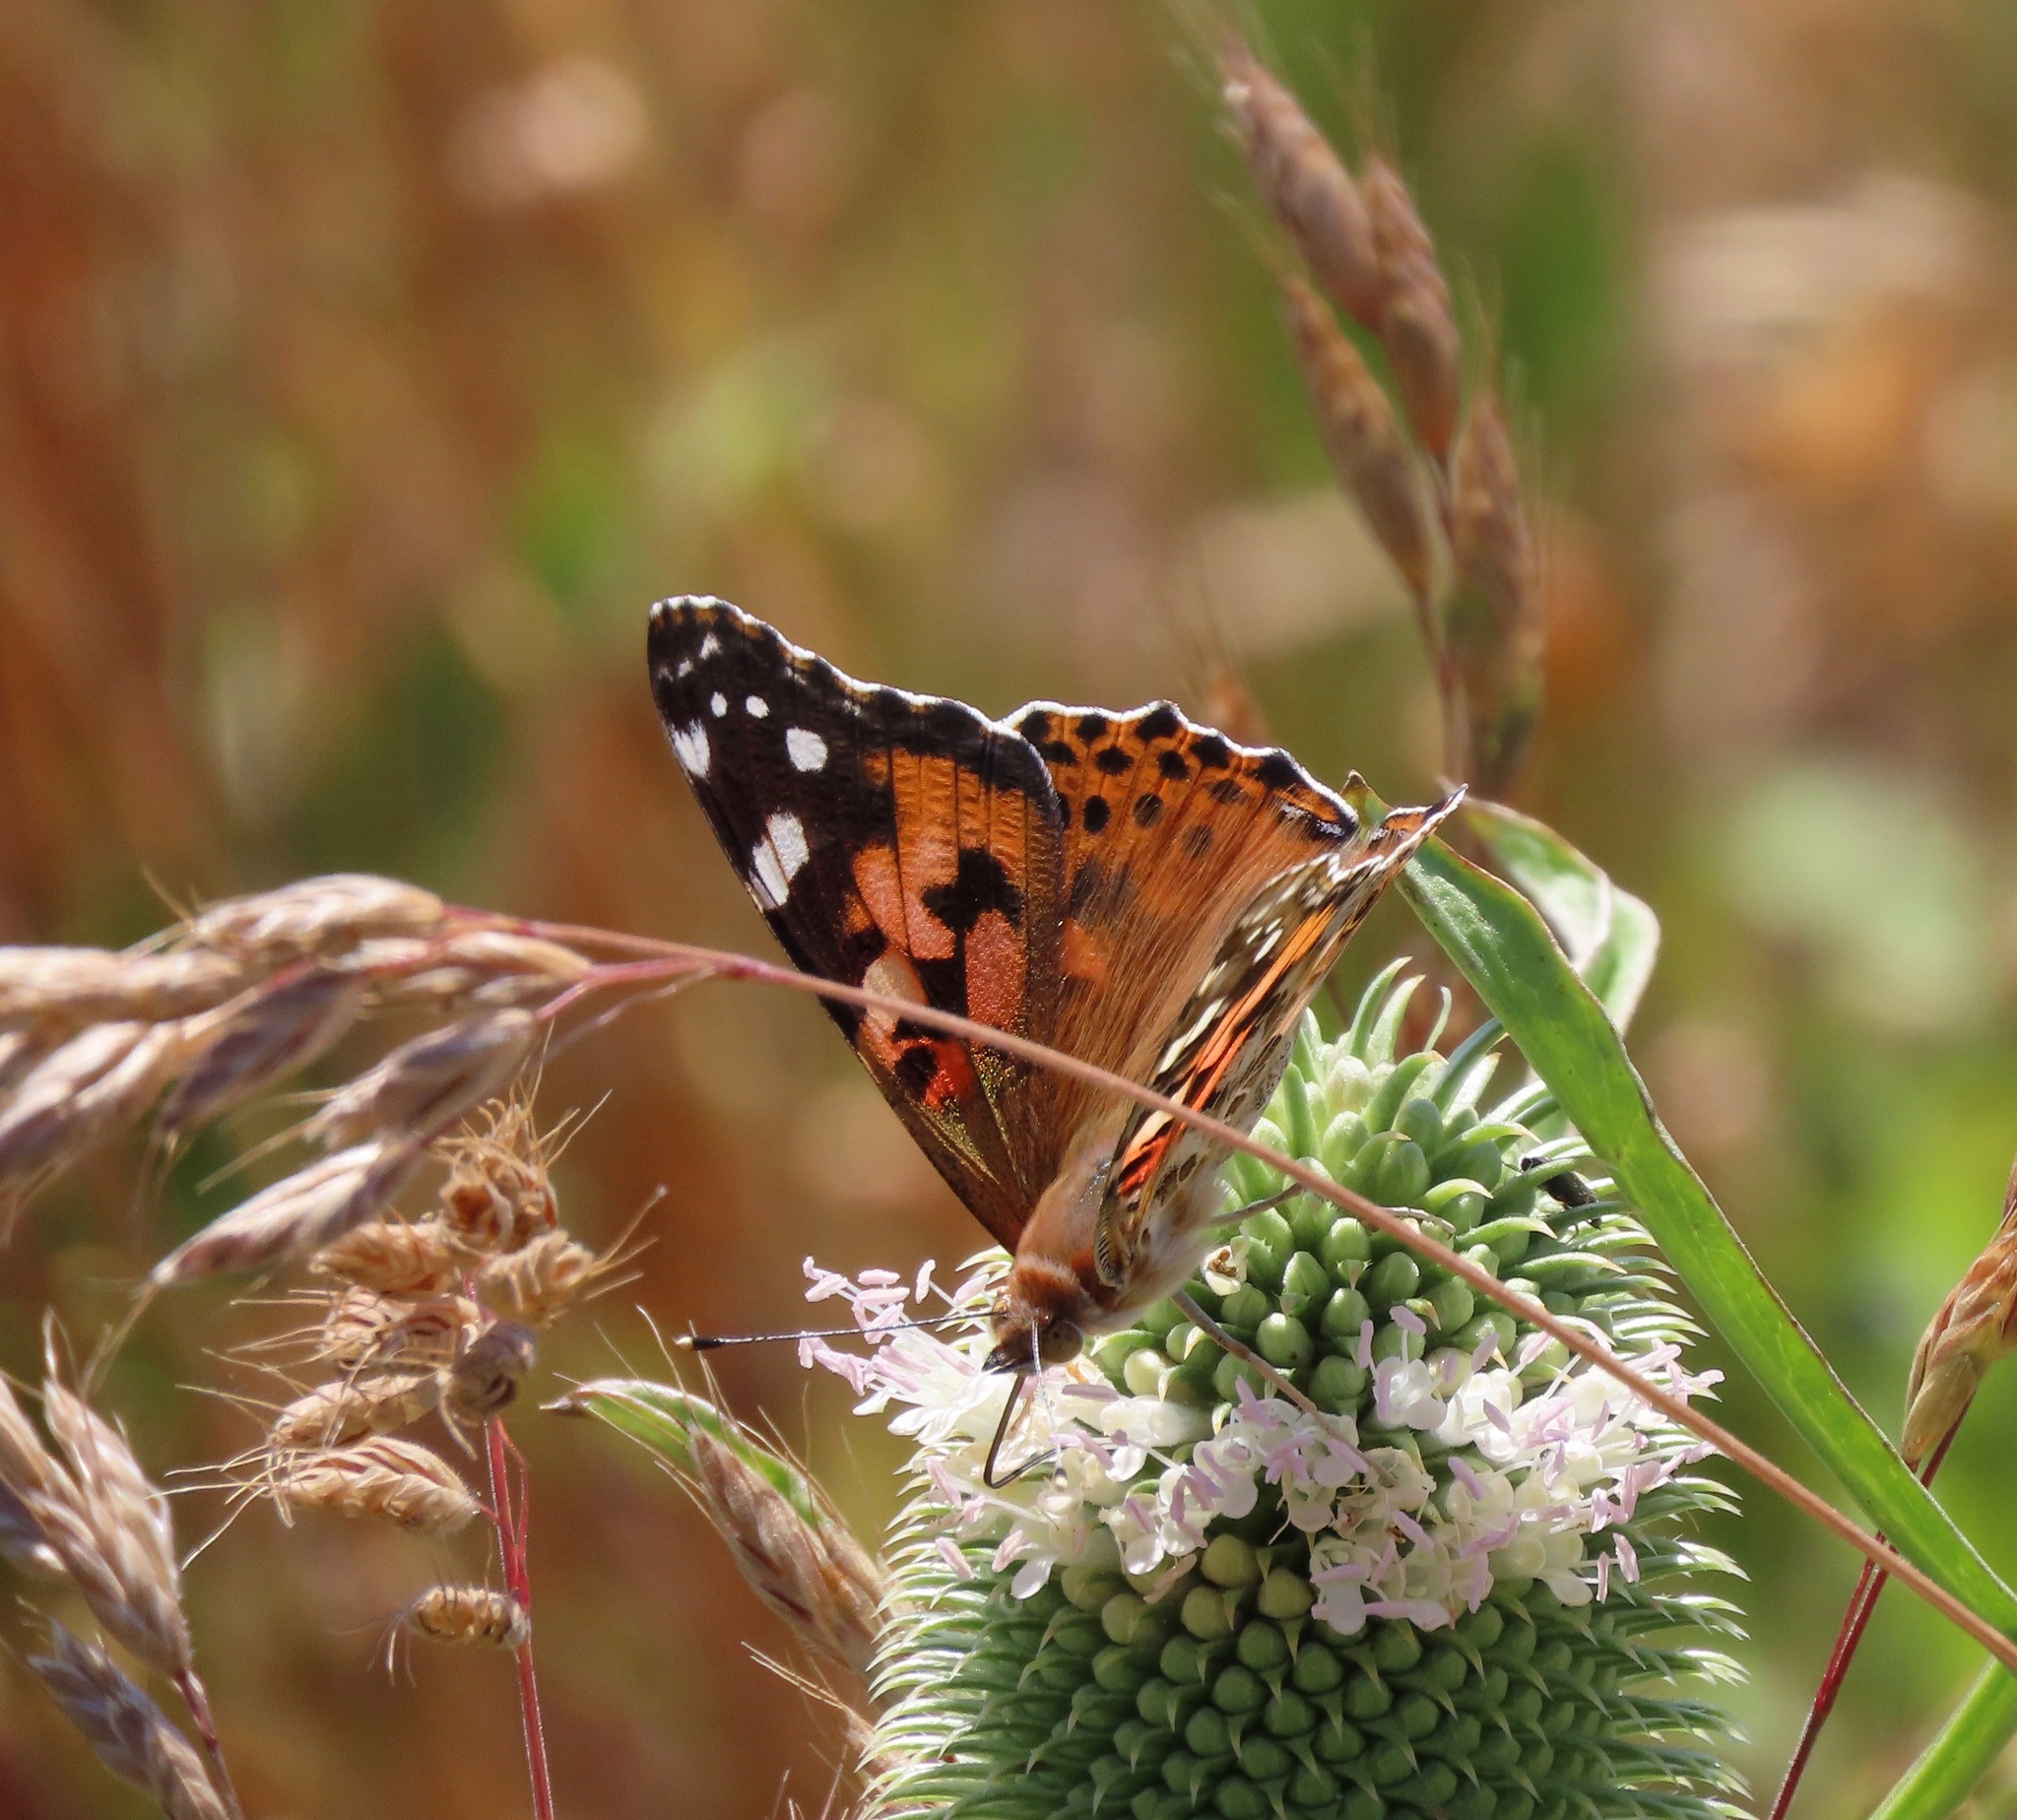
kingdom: Animalia
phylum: Arthropoda
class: Insecta
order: Lepidoptera
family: Nymphalidae
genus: Vanessa
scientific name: Vanessa cardui
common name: Painted lady
